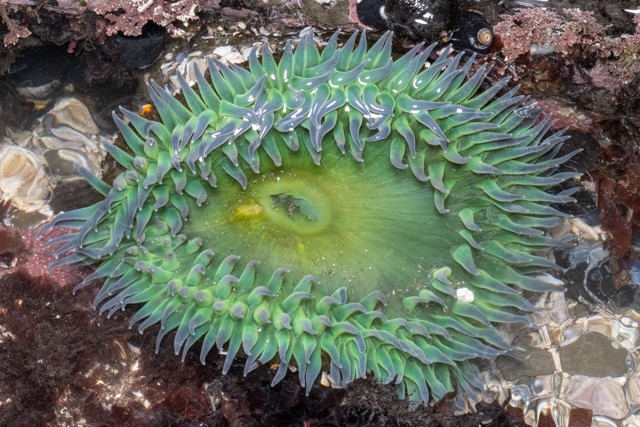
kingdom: Animalia
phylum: Cnidaria
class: Anthozoa
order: Actiniaria
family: Actiniidae
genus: Anthopleura
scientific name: Anthopleura xanthogrammica
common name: Giant green anemone
